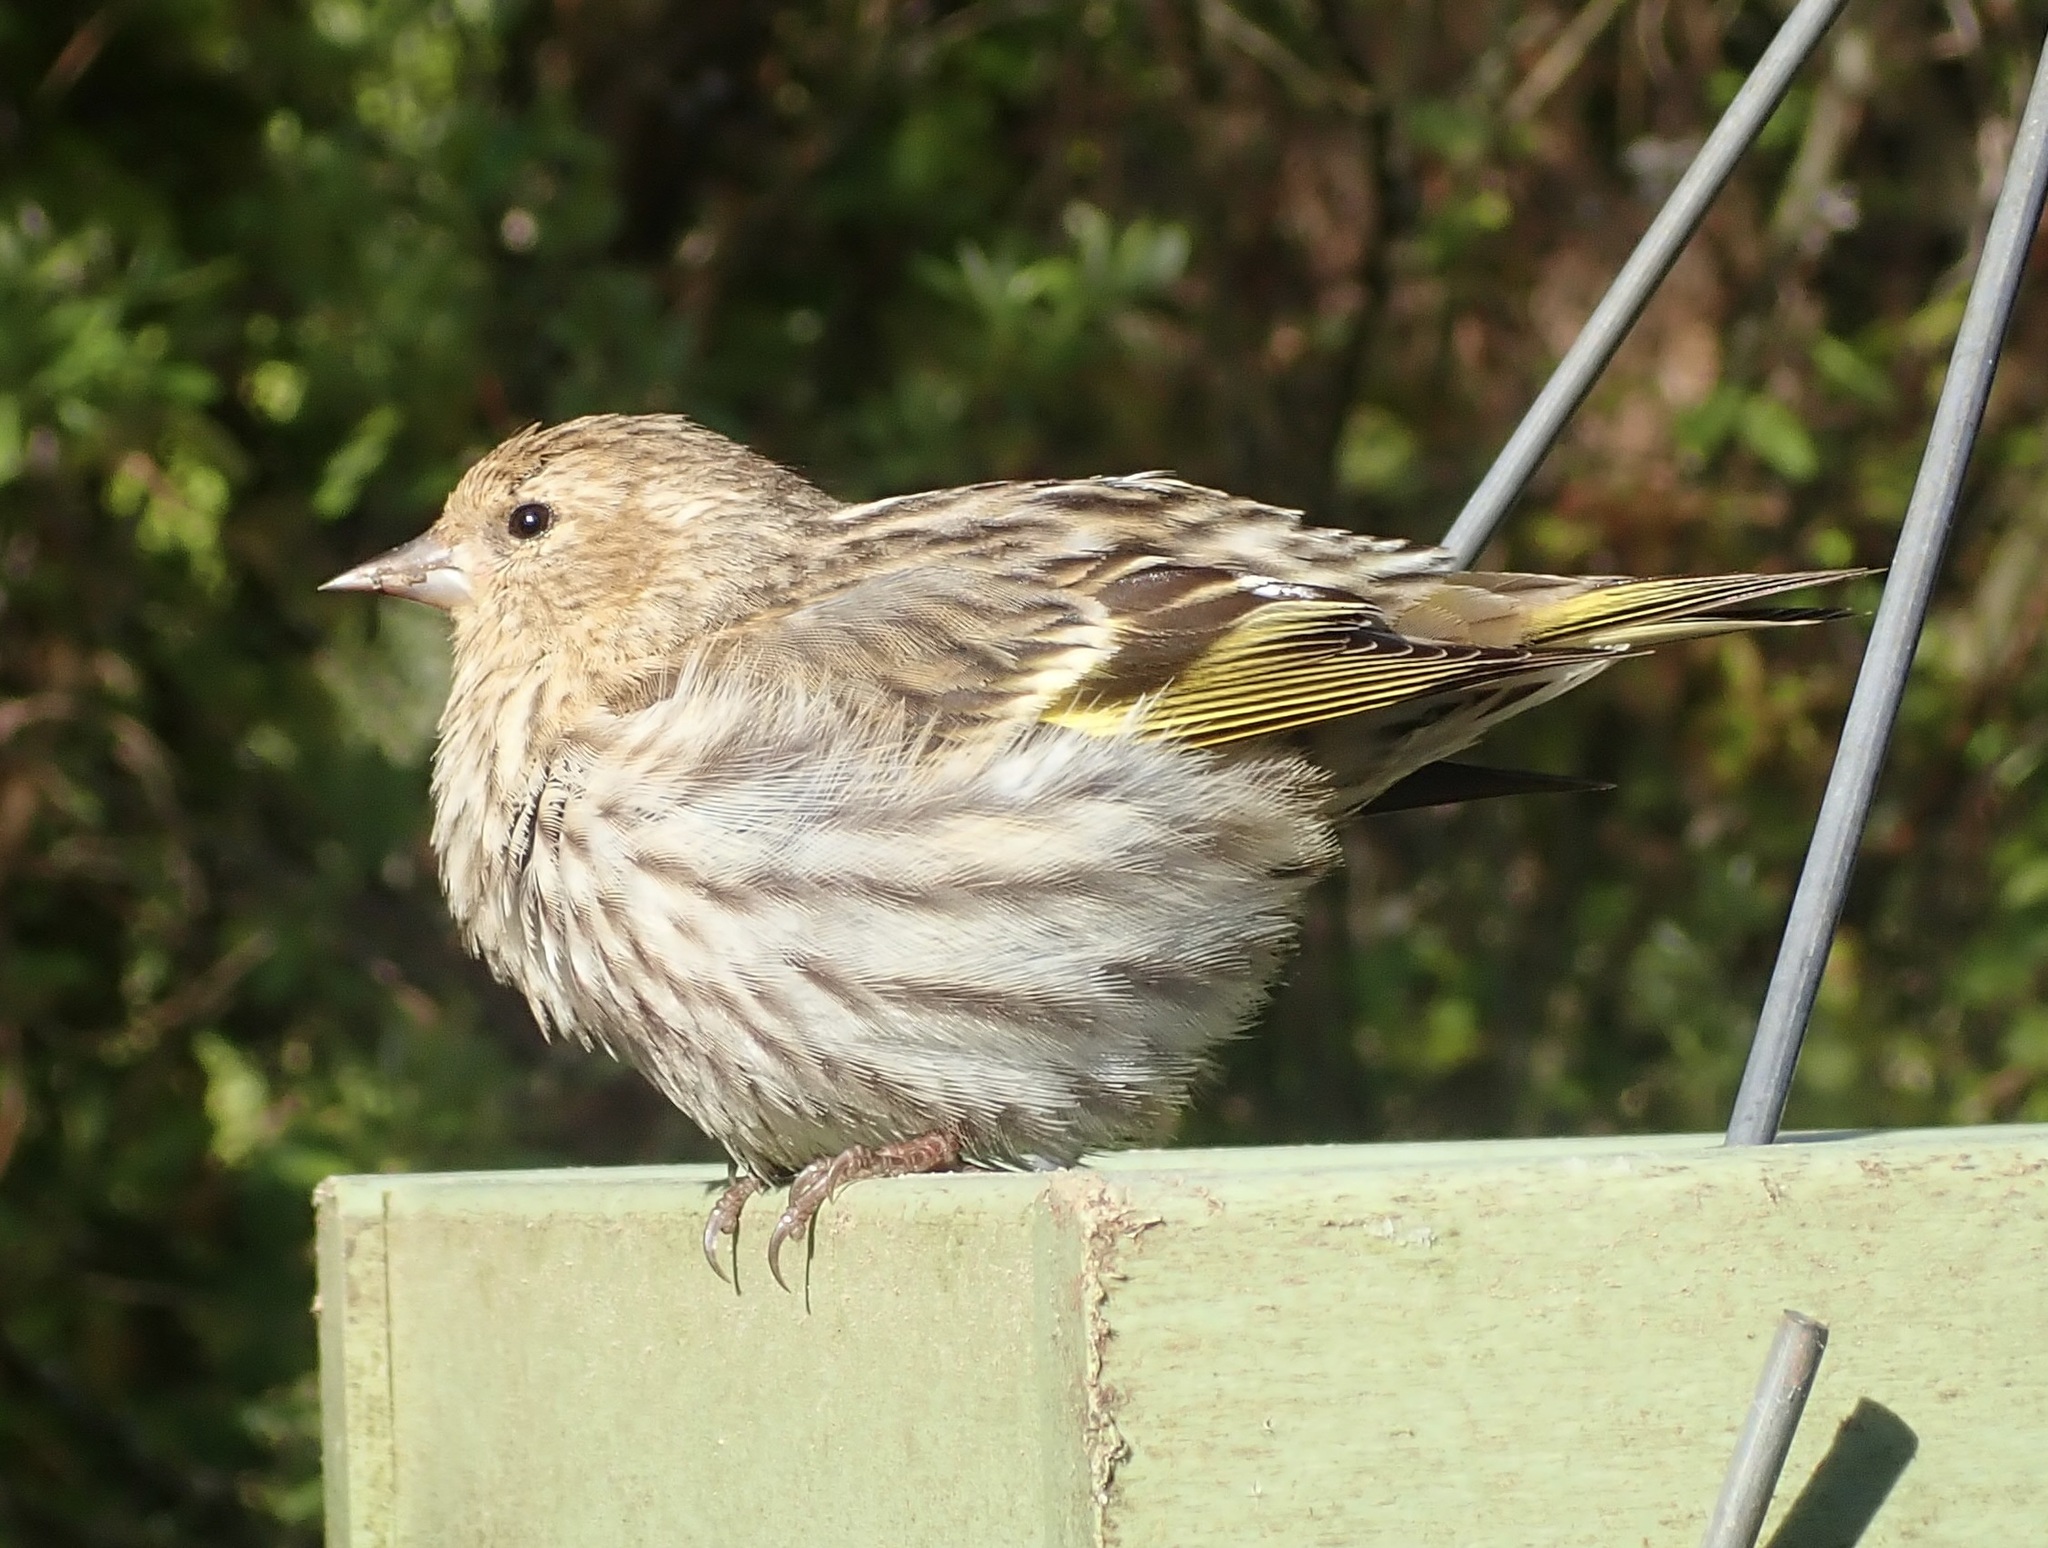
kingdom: Animalia
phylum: Chordata
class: Aves
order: Passeriformes
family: Fringillidae
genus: Spinus
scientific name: Spinus pinus
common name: Pine siskin
